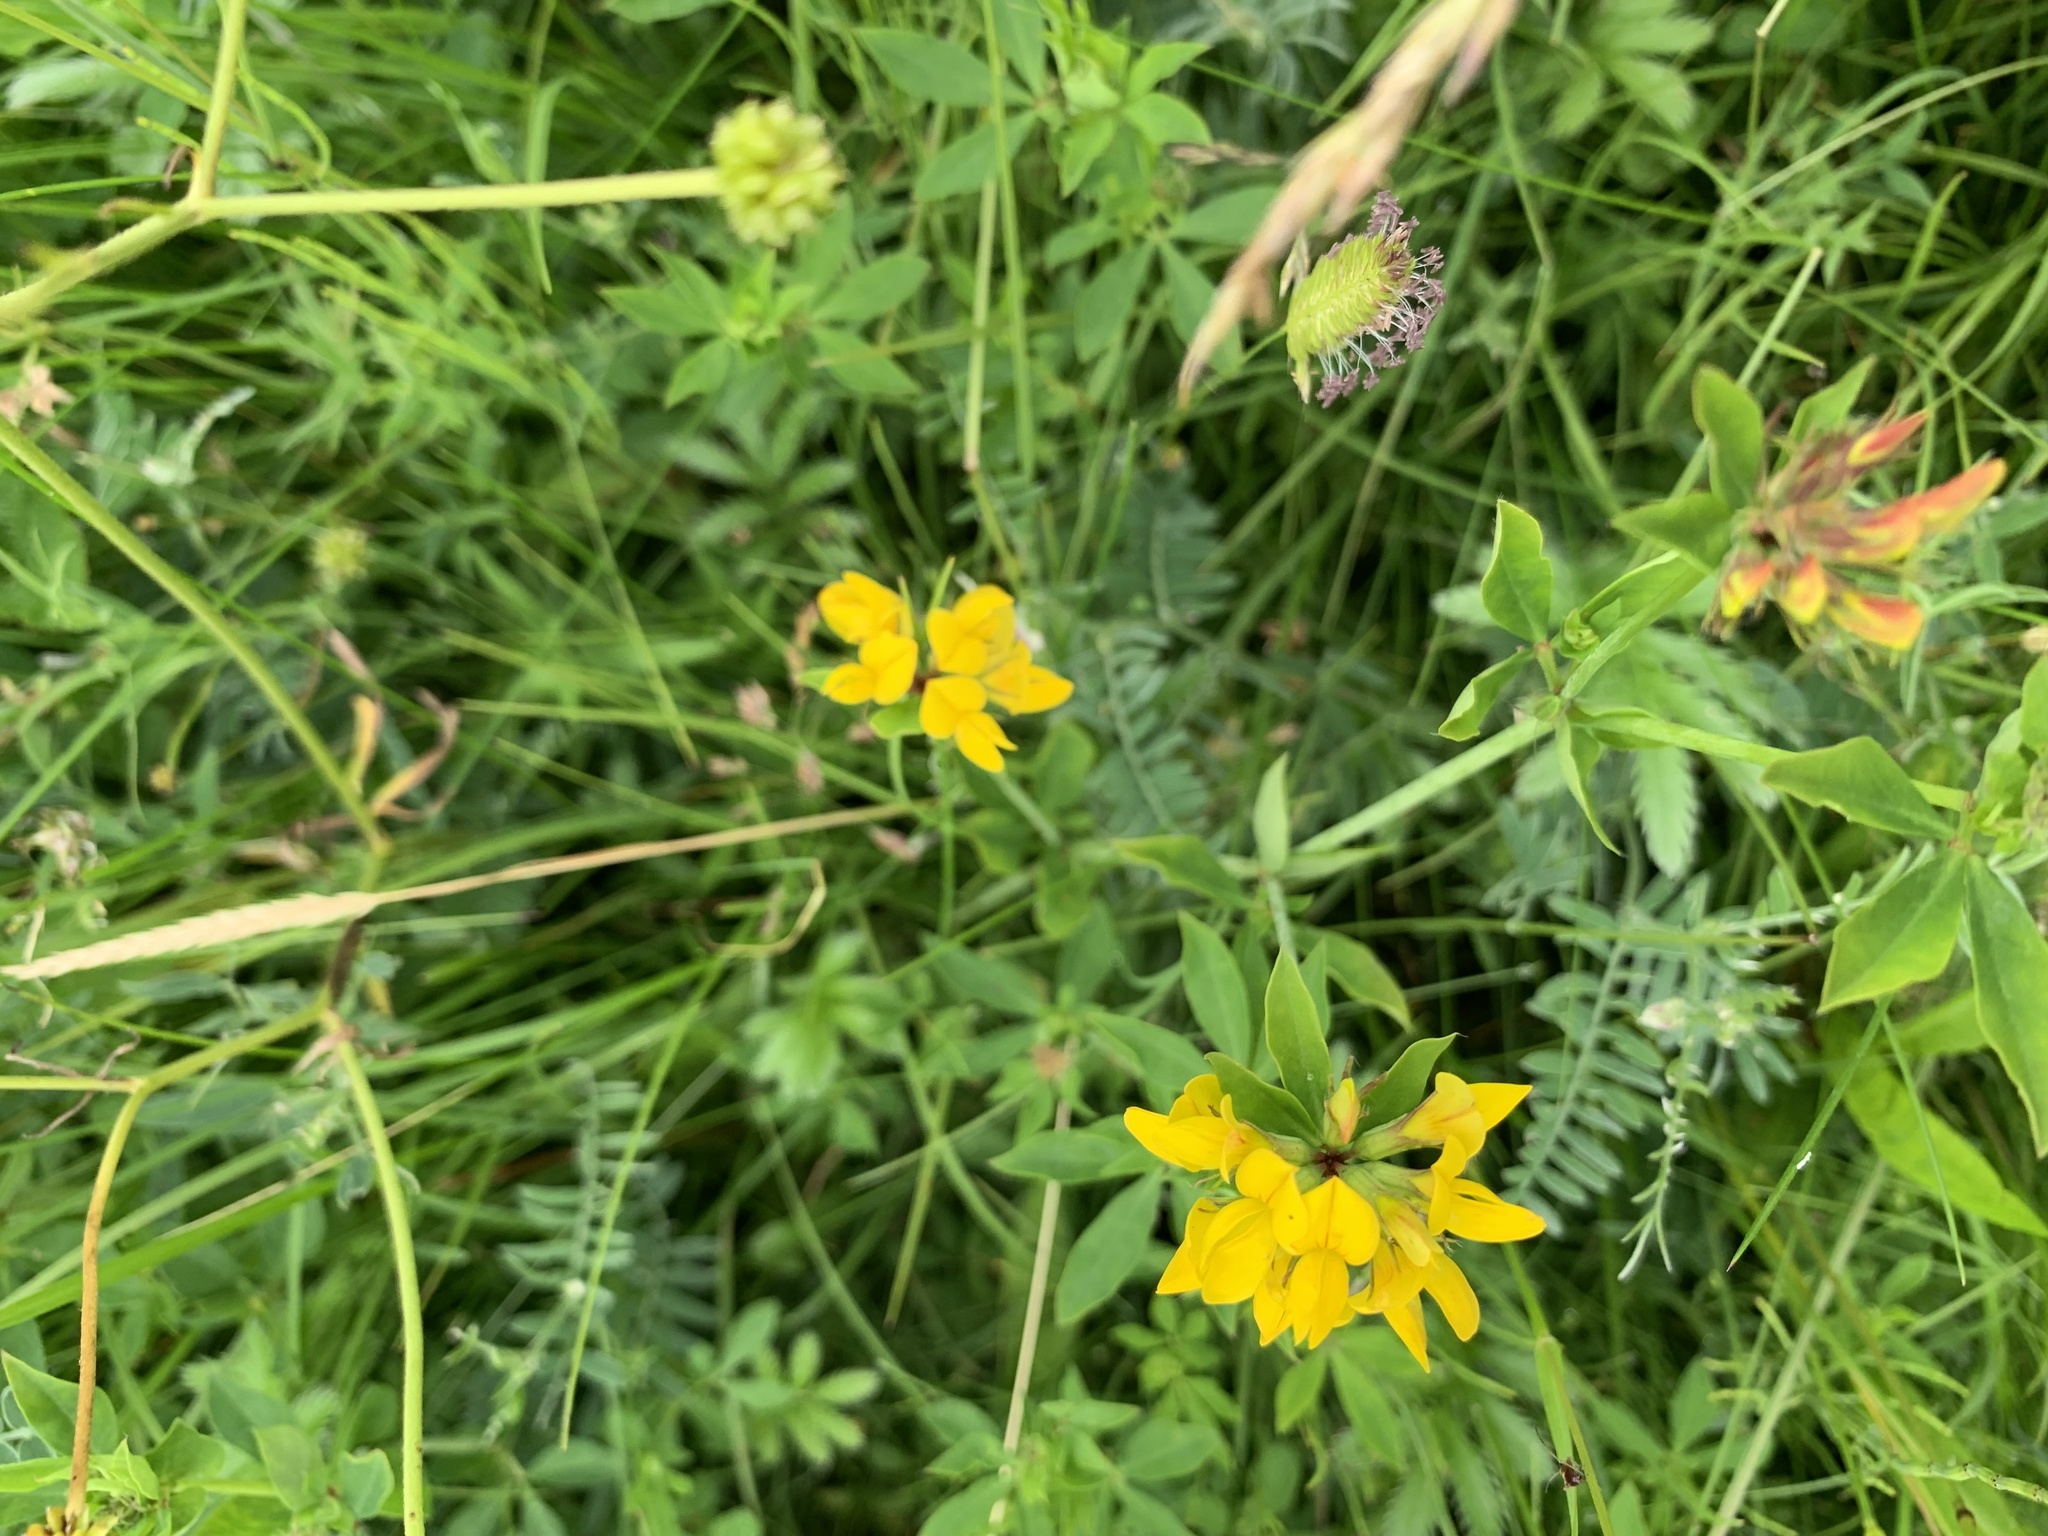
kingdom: Plantae
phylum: Tracheophyta
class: Magnoliopsida
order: Fabales
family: Fabaceae
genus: Lotus
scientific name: Lotus pedunculatus
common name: Greater birdsfoot-trefoil
